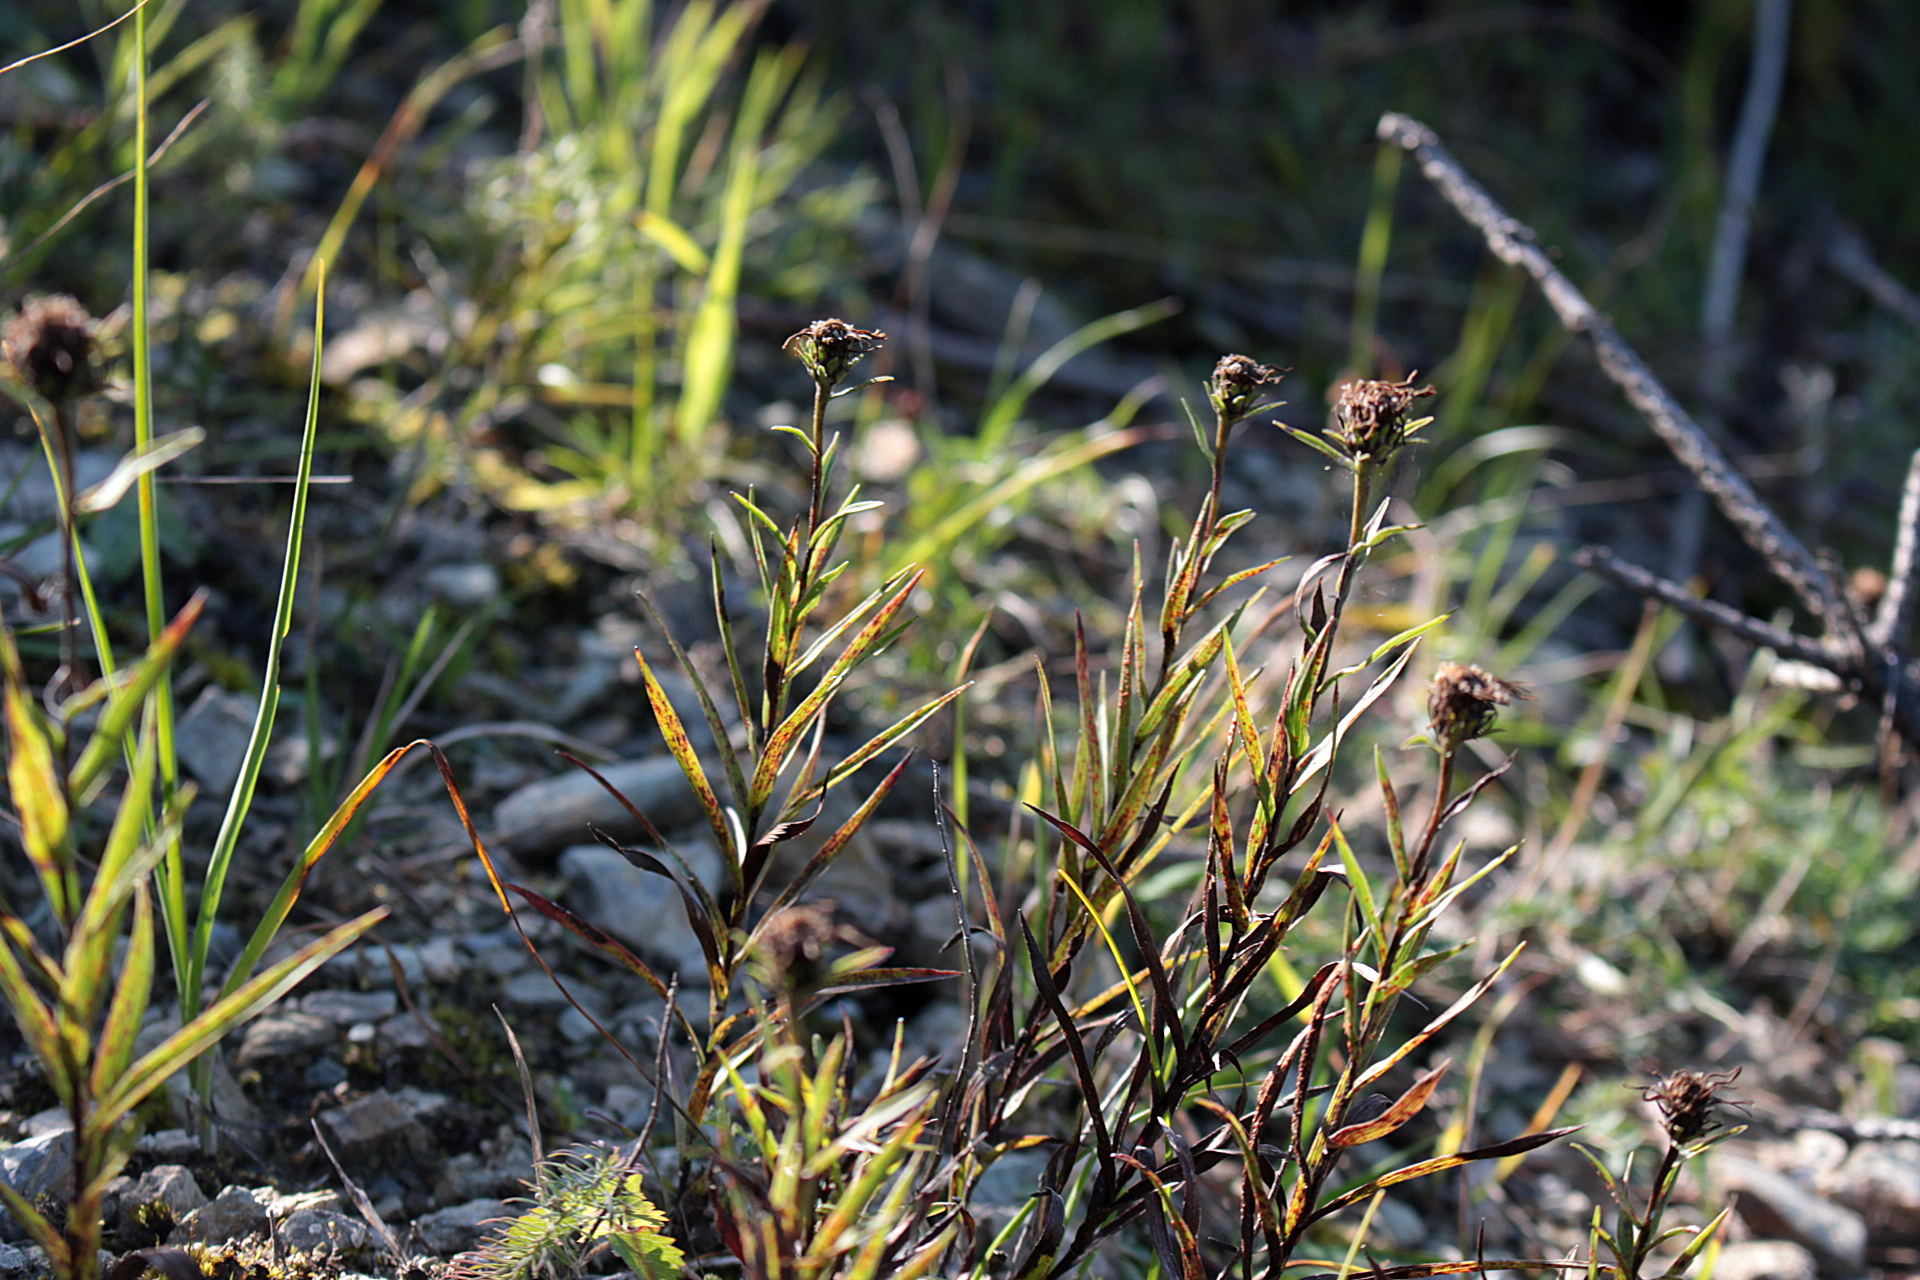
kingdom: Plantae
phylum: Tracheophyta
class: Magnoliopsida
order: Asterales
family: Asteraceae
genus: Pentanema
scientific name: Pentanema ensifolium
